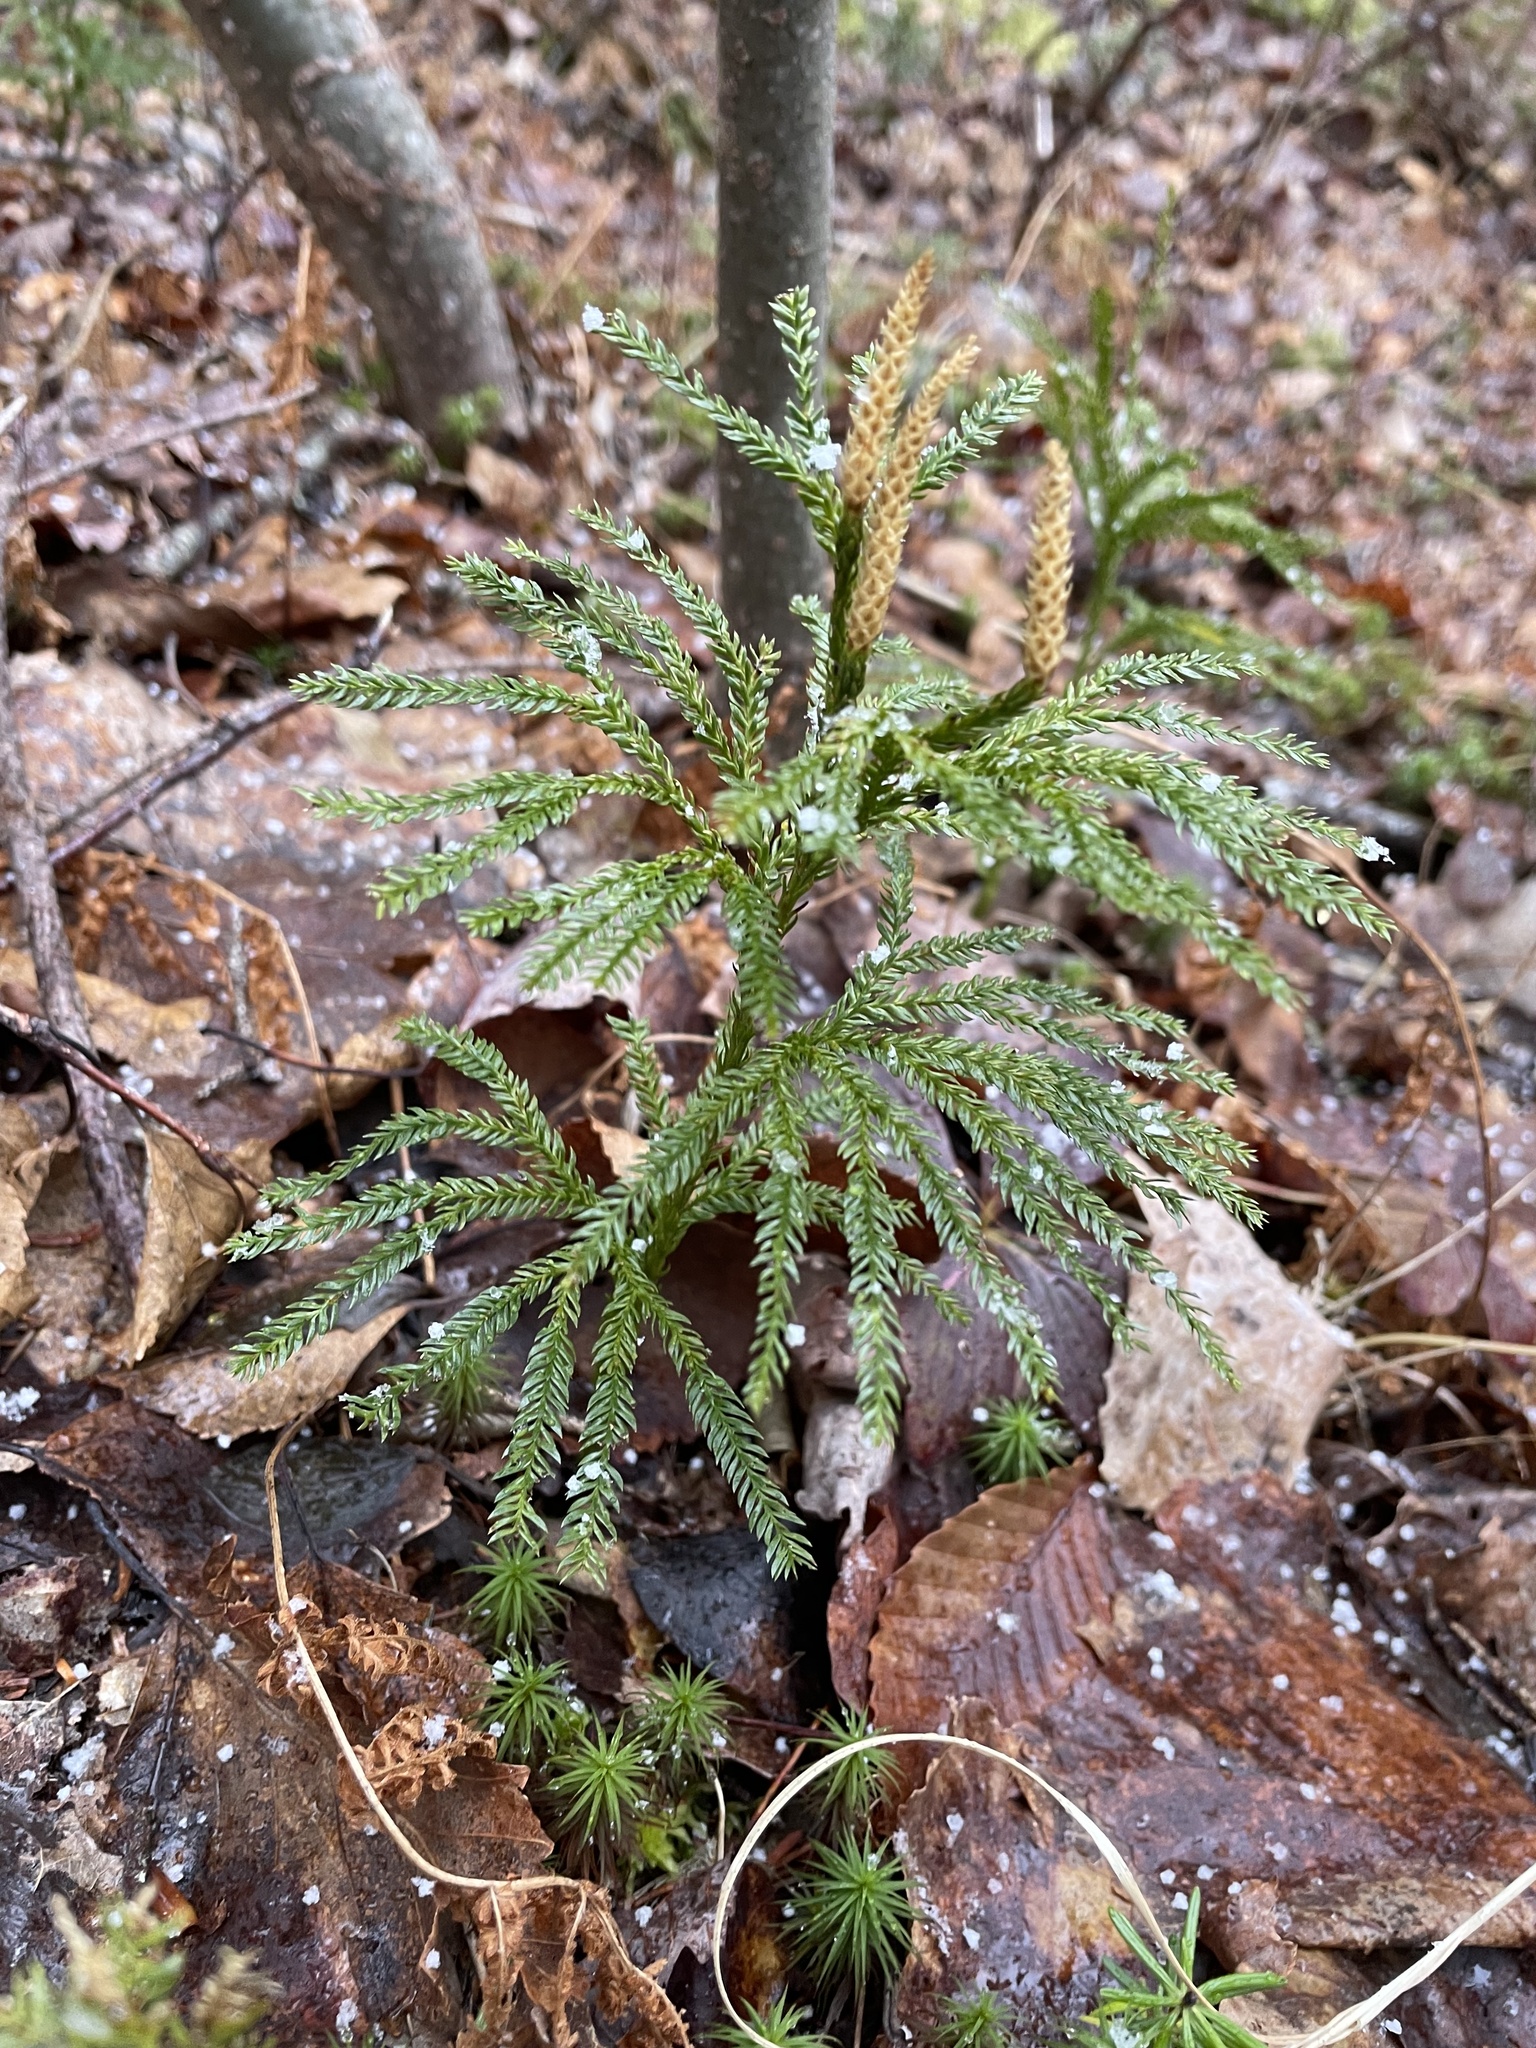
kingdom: Plantae
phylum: Tracheophyta
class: Lycopodiopsida
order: Lycopodiales
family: Lycopodiaceae
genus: Dendrolycopodium
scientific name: Dendrolycopodium obscurum
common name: Common ground-pine
